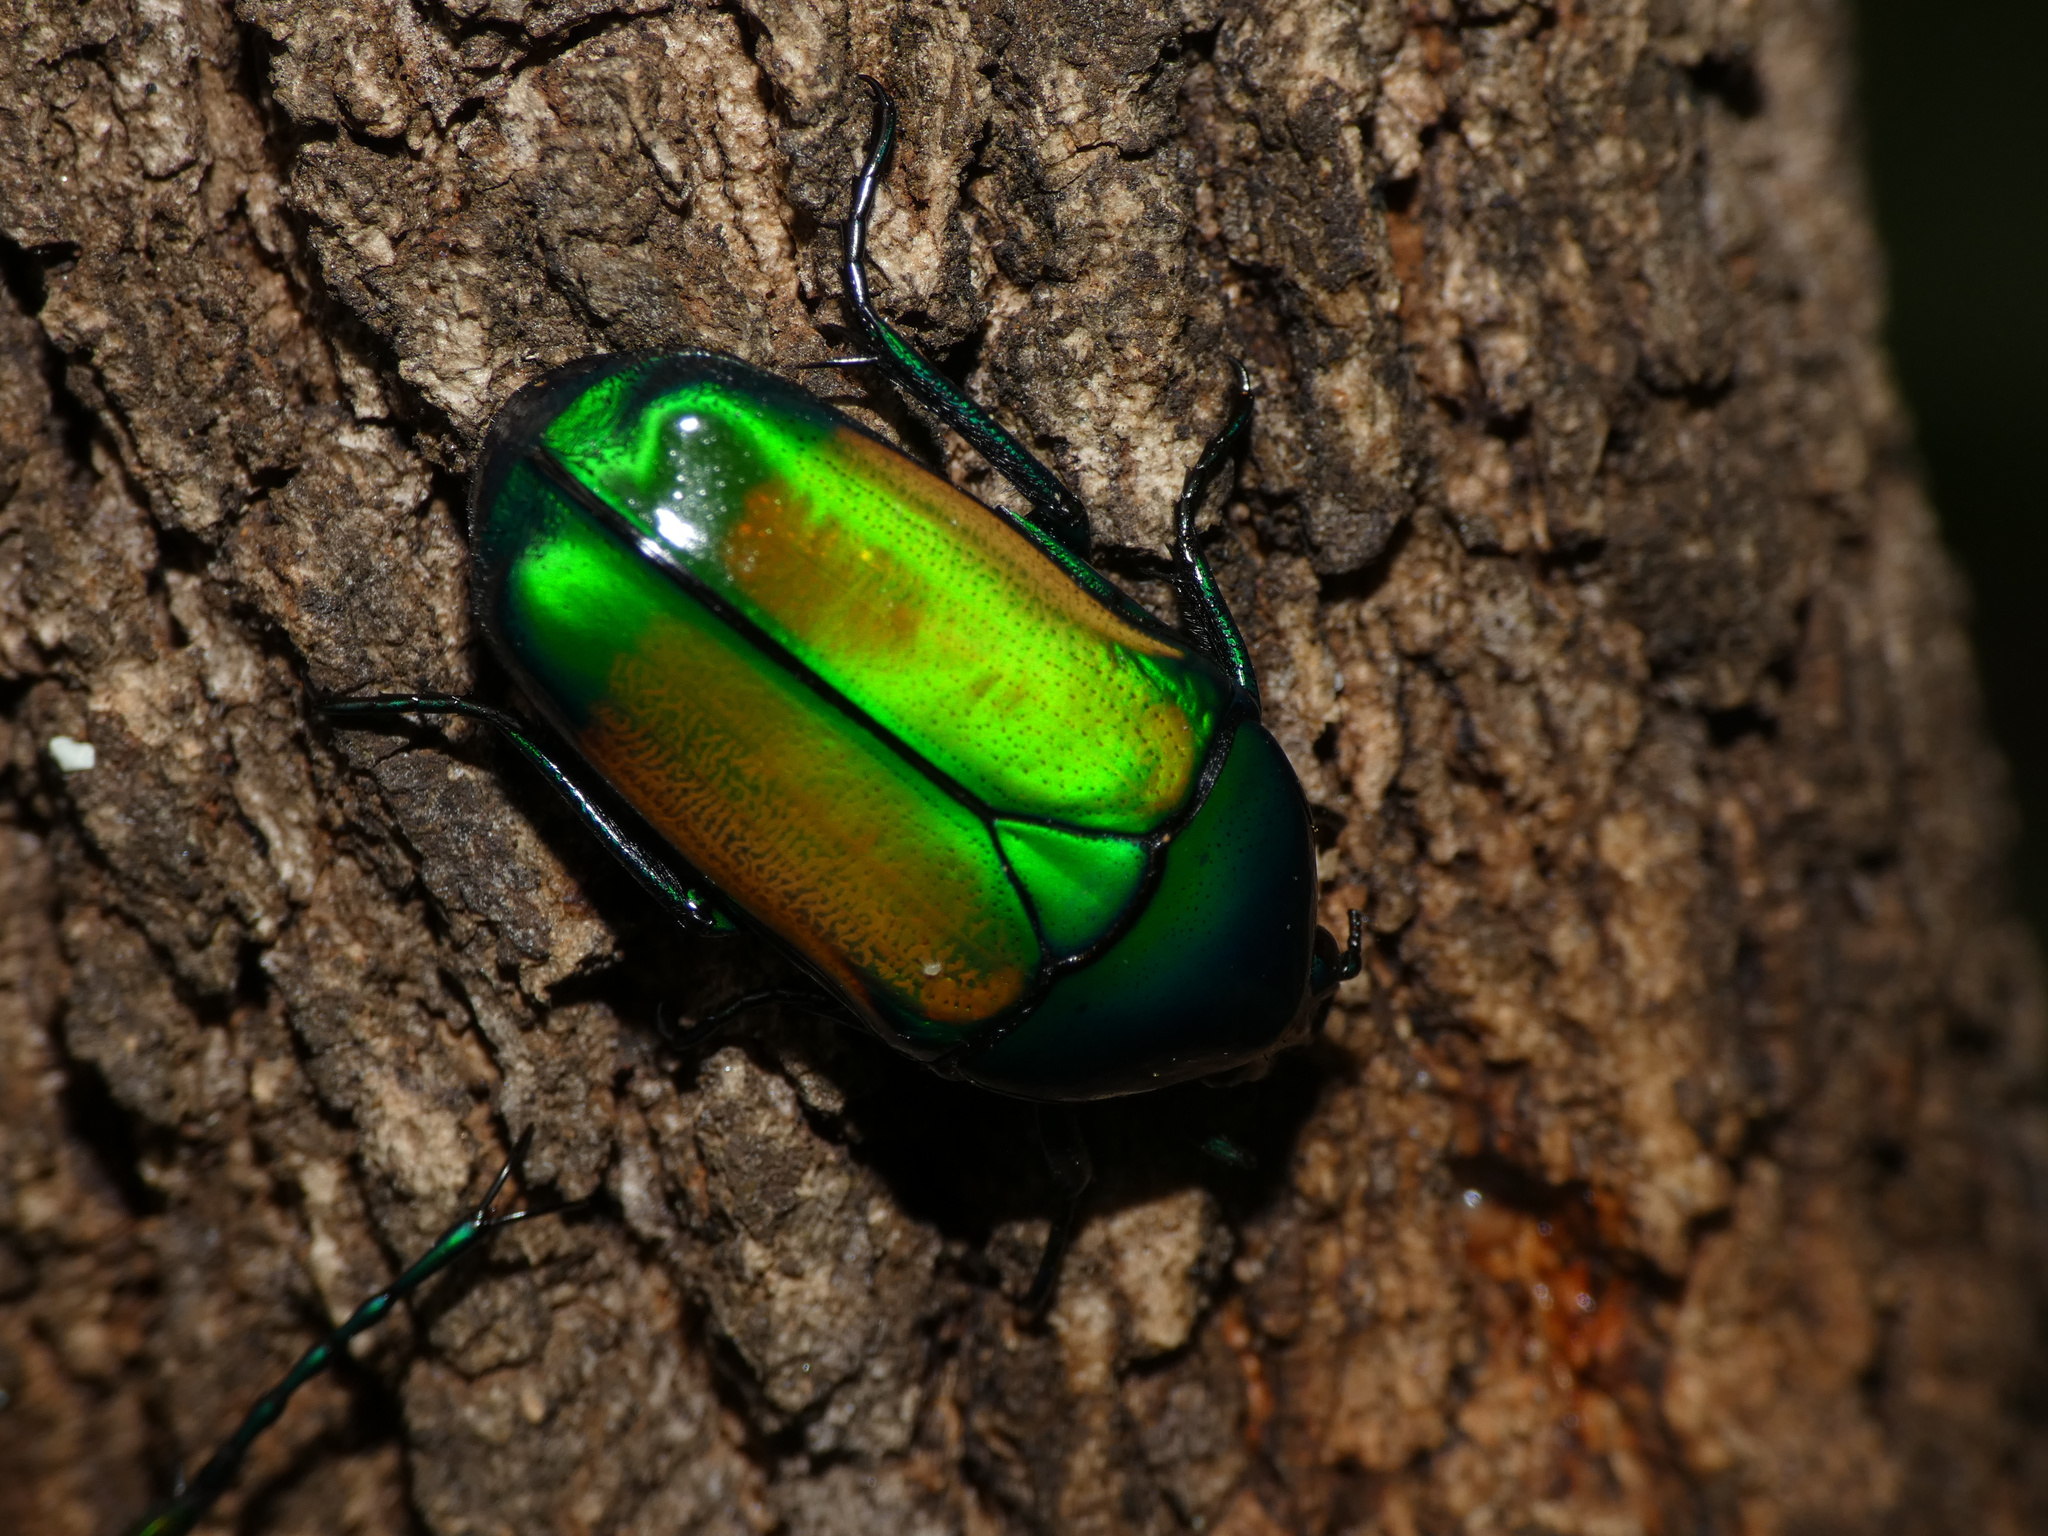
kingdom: Animalia
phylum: Arthropoda
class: Insecta
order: Coleoptera
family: Scarabaeidae
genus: Chlorocala
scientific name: Chlorocala africana
